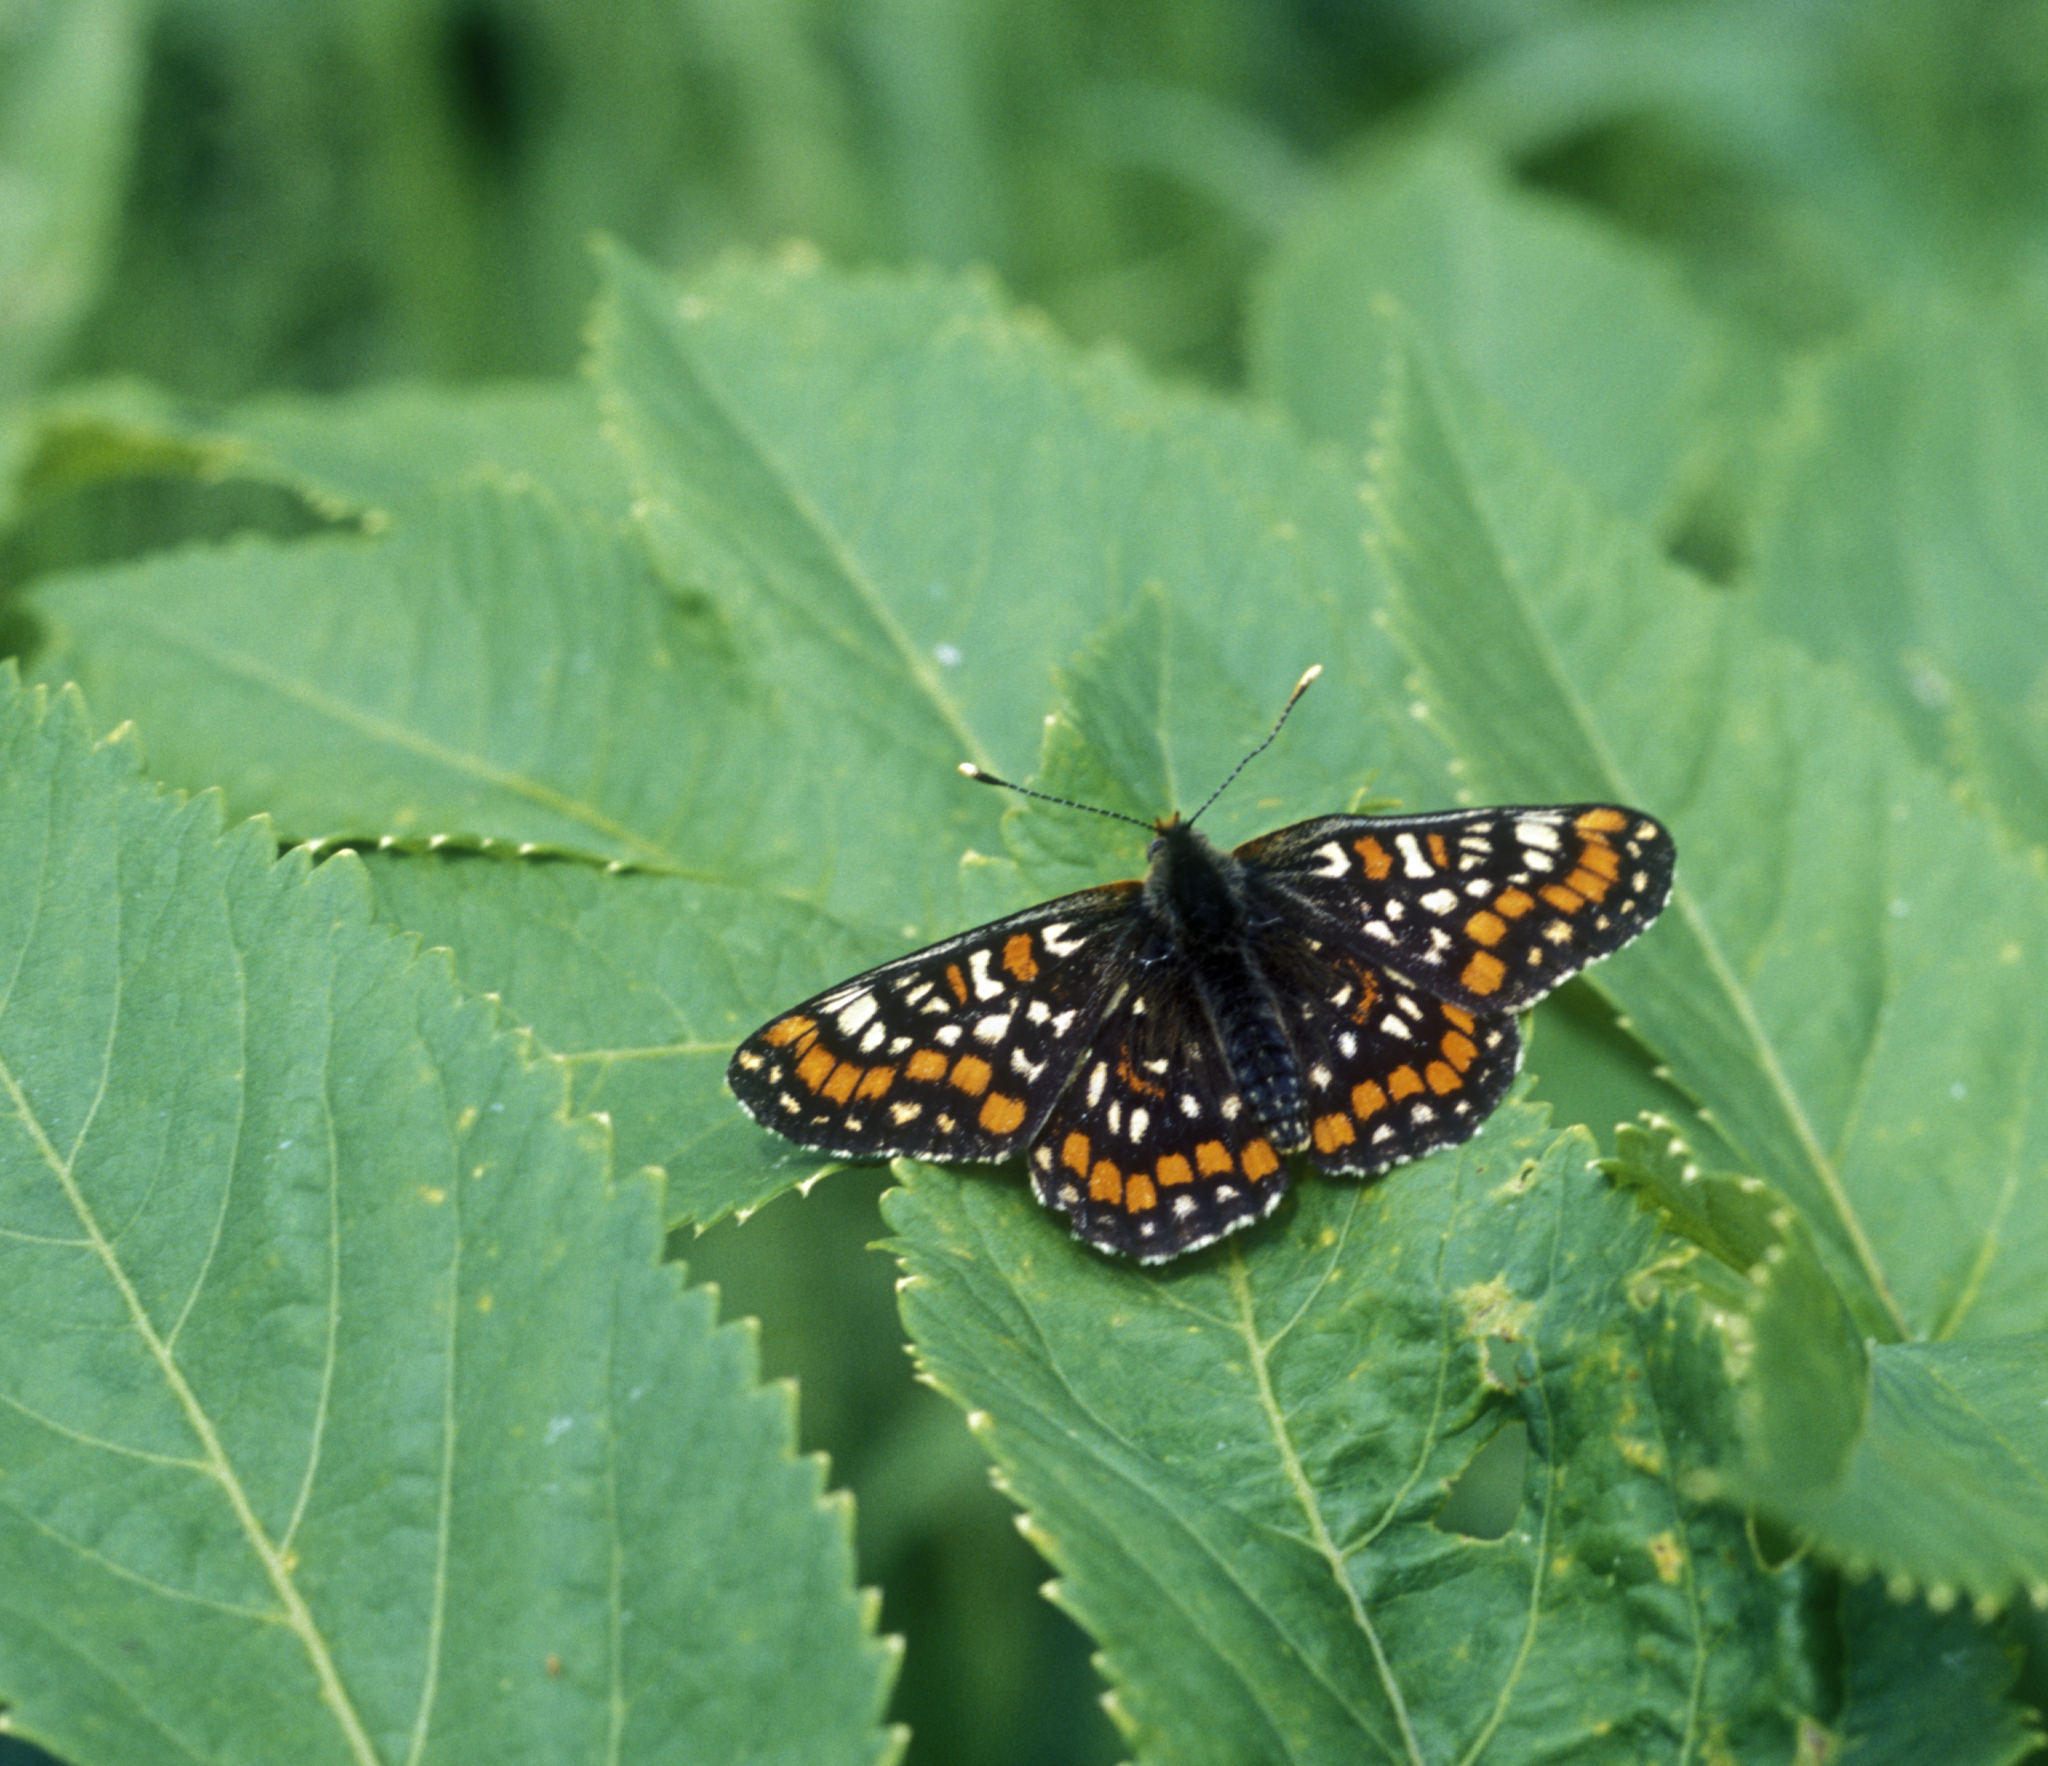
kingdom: Animalia
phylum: Arthropoda
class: Insecta
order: Lepidoptera
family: Nymphalidae
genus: Euphydryas
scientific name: Euphydryas maturna
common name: Scarce fritillary
